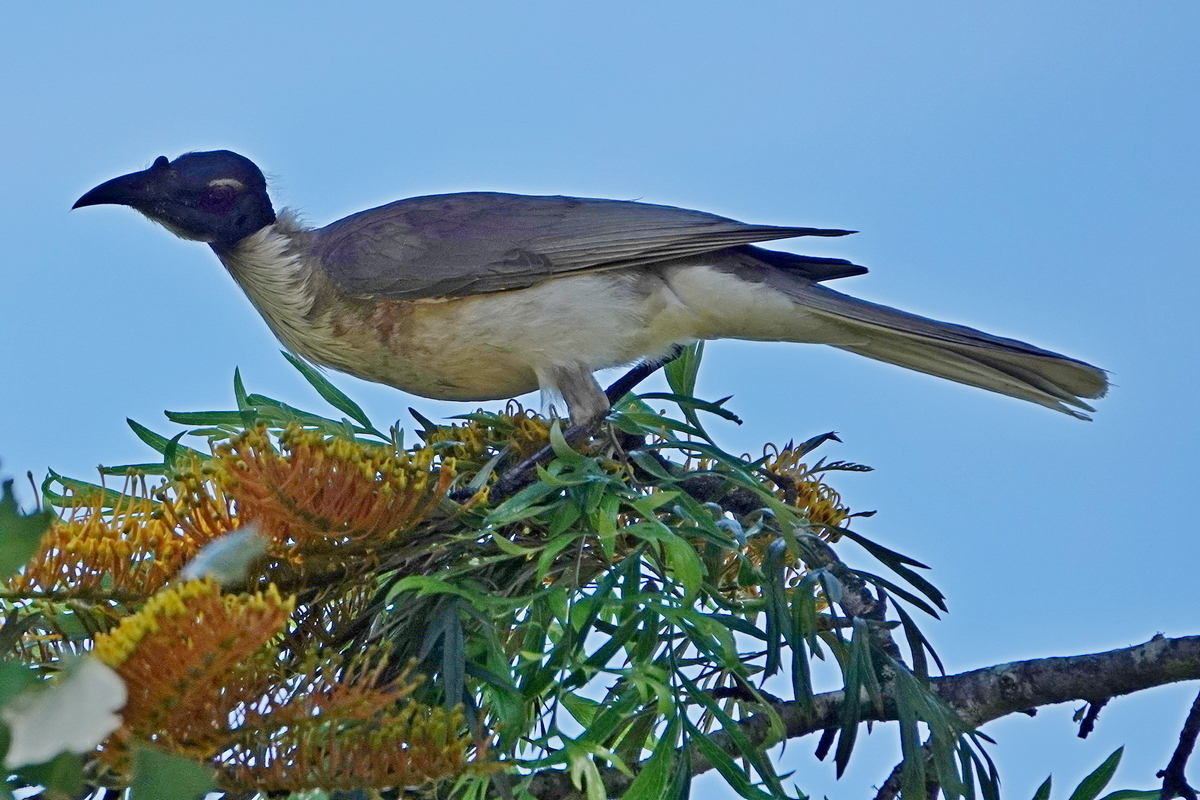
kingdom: Animalia
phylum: Chordata
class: Aves
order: Passeriformes
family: Meliphagidae
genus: Philemon
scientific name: Philemon corniculatus
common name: Noisy friarbird
